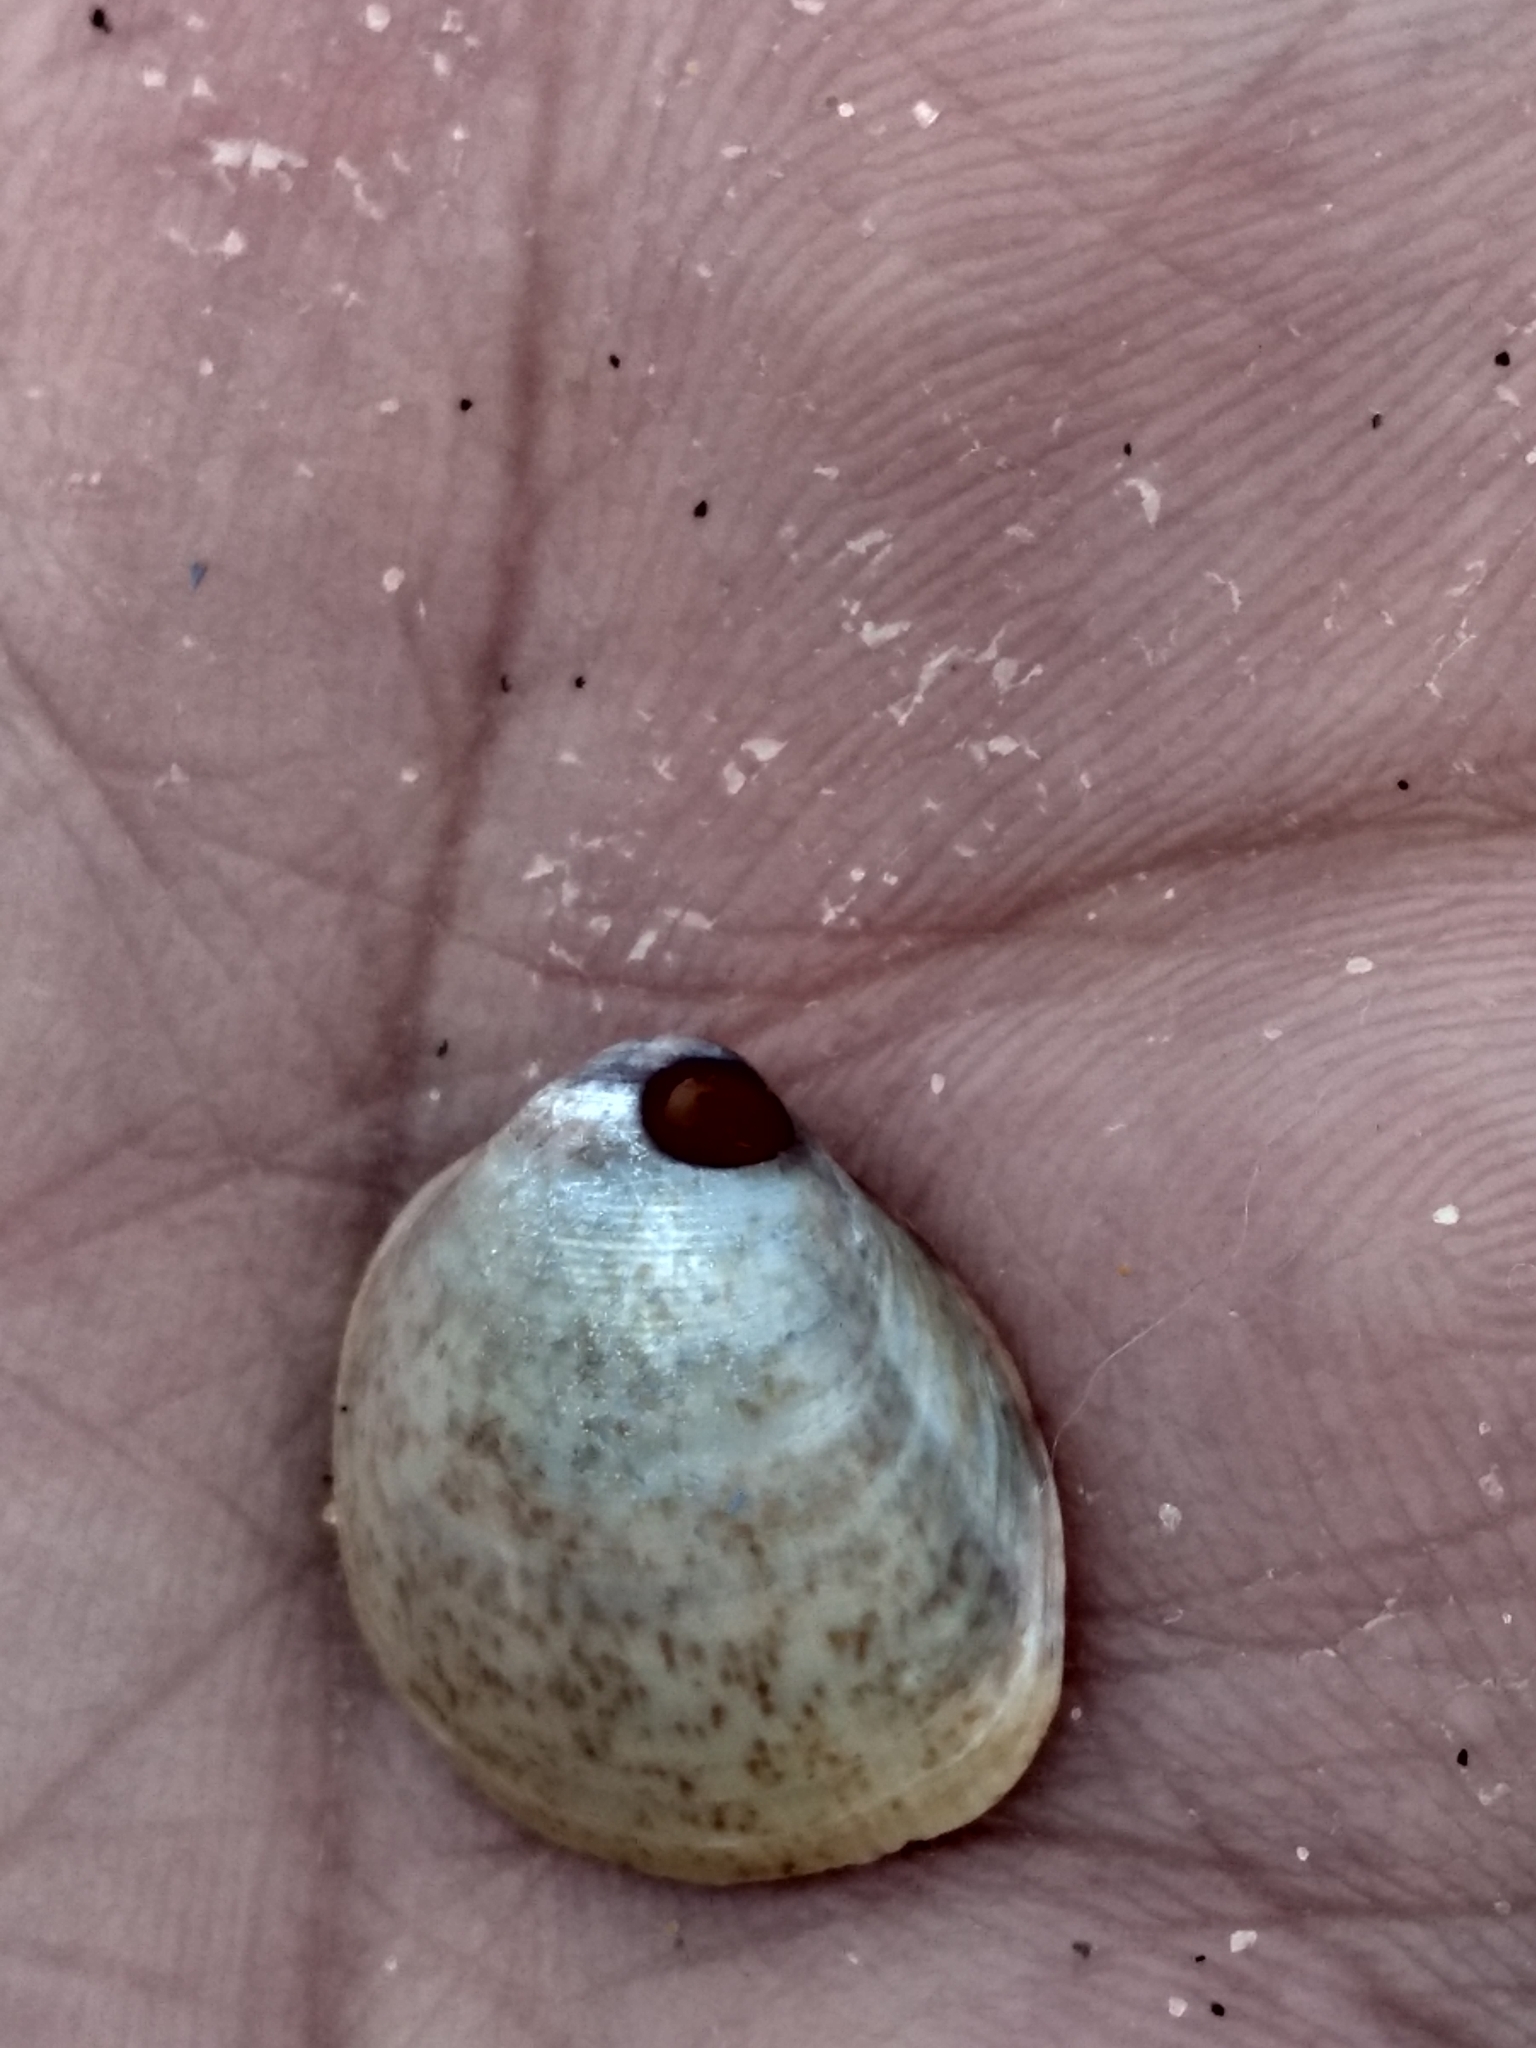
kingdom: Animalia
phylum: Mollusca
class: Bivalvia
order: Cardiida
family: Cardiidae
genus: Laevicardium
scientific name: Laevicardium substriatum
